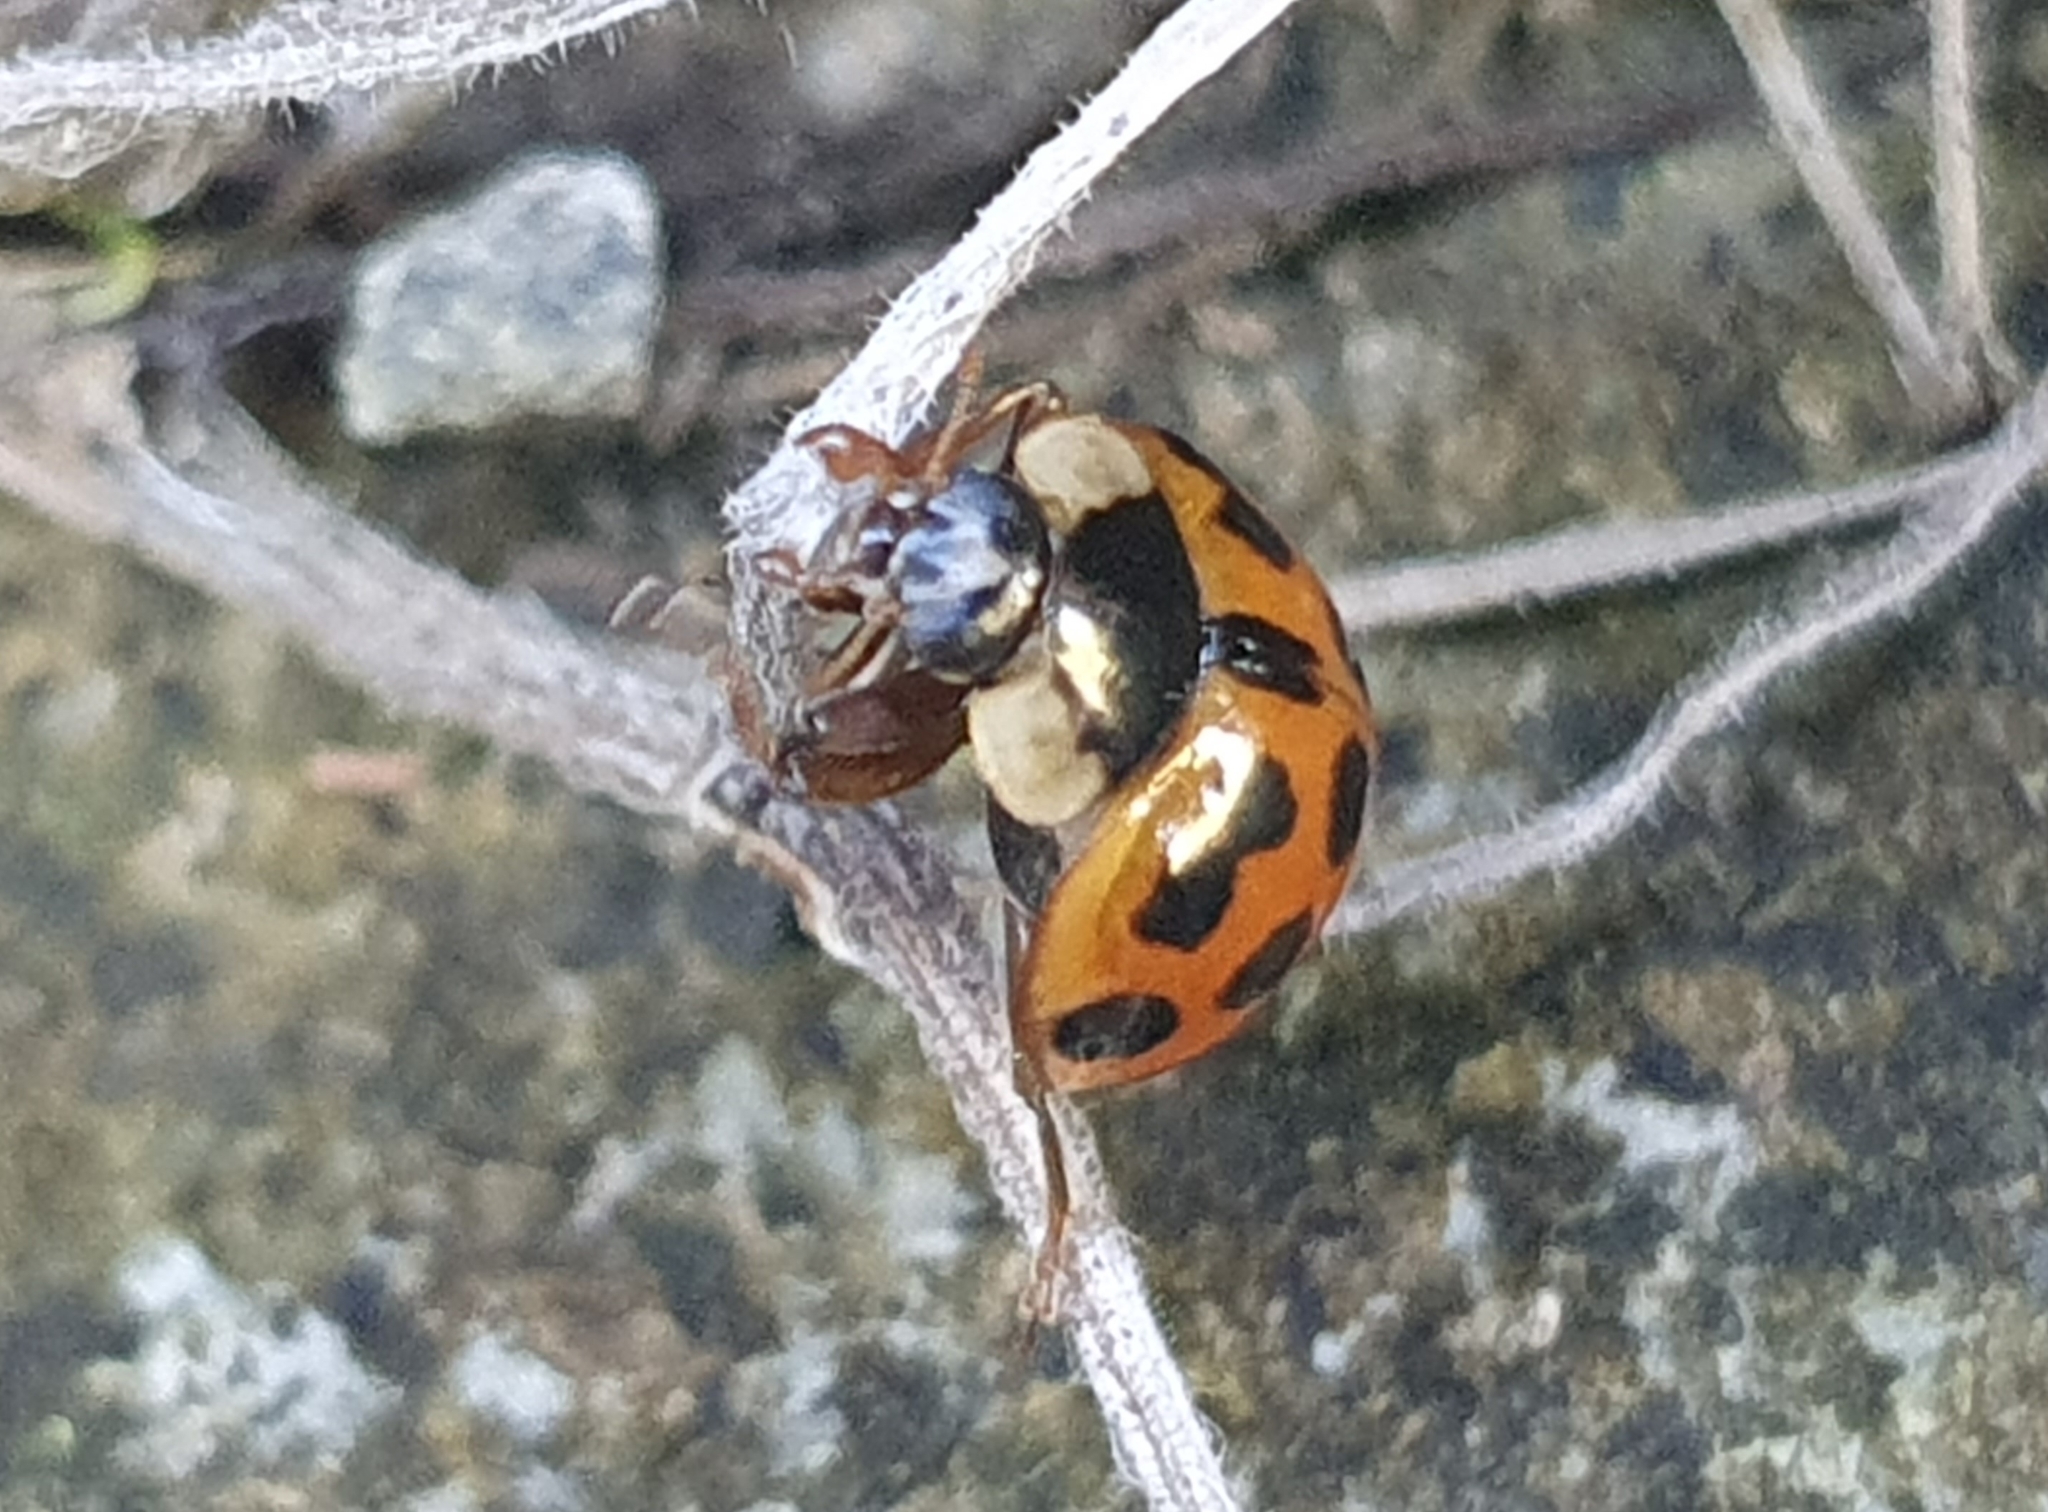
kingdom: Animalia
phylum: Arthropoda
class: Insecta
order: Coleoptera
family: Coccinellidae
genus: Harmonia
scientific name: Harmonia axyridis
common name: Harlequin ladybird
